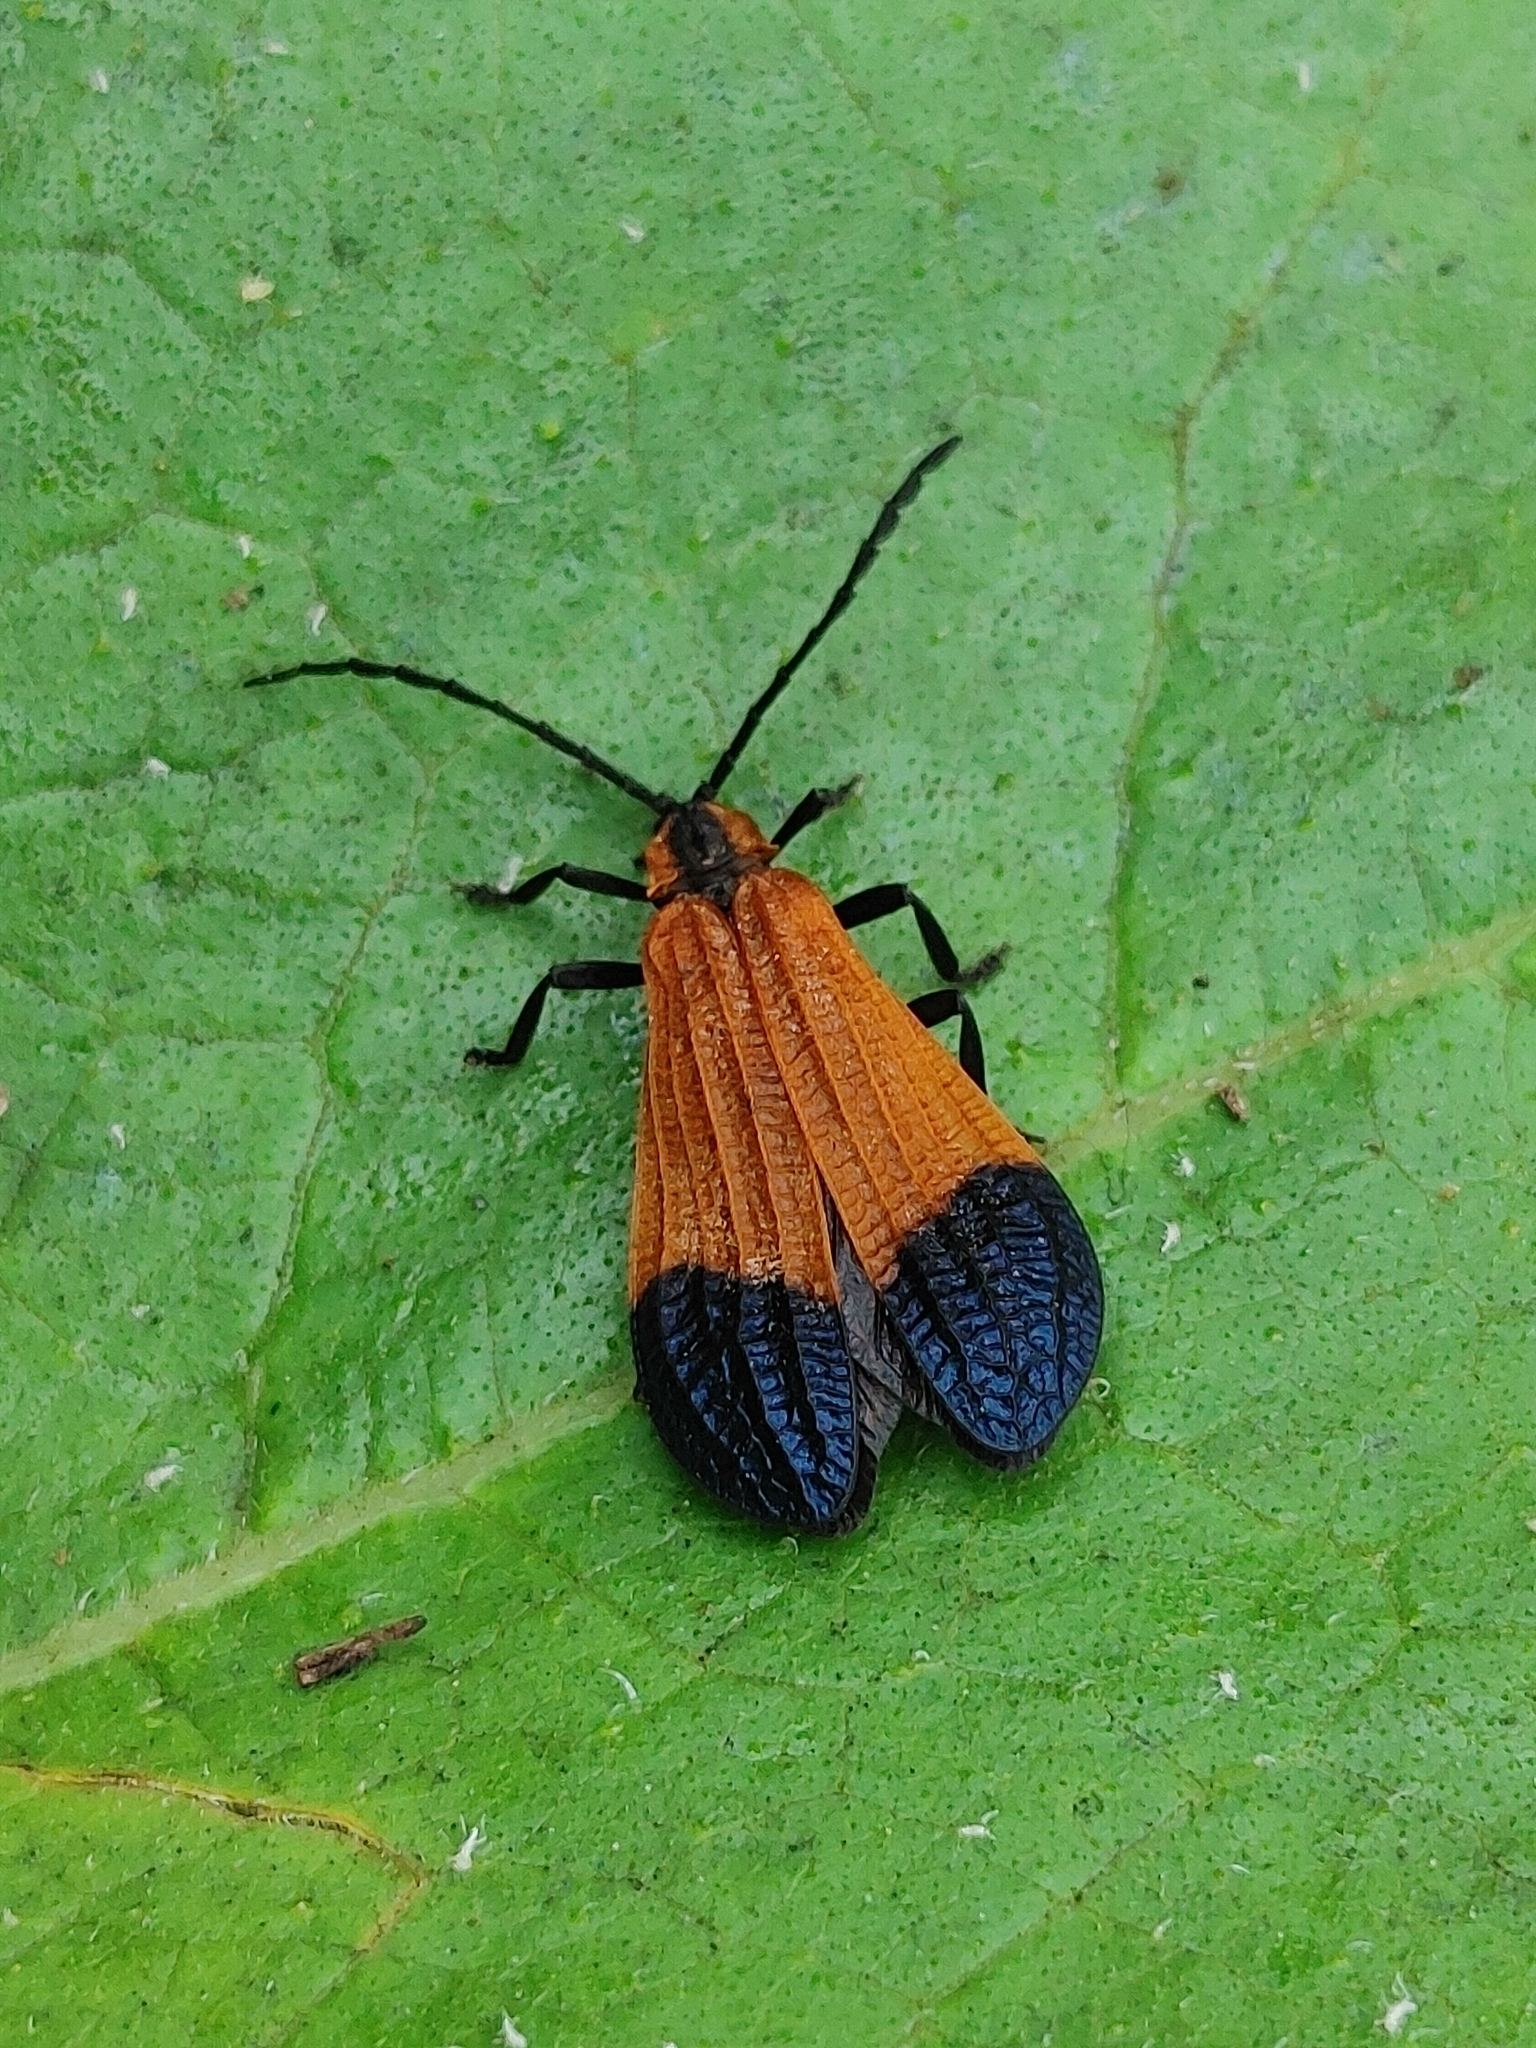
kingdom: Animalia
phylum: Arthropoda
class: Insecta
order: Coleoptera
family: Lycidae
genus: Calopteron
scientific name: Calopteron terminale
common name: End band net-winged beetle
